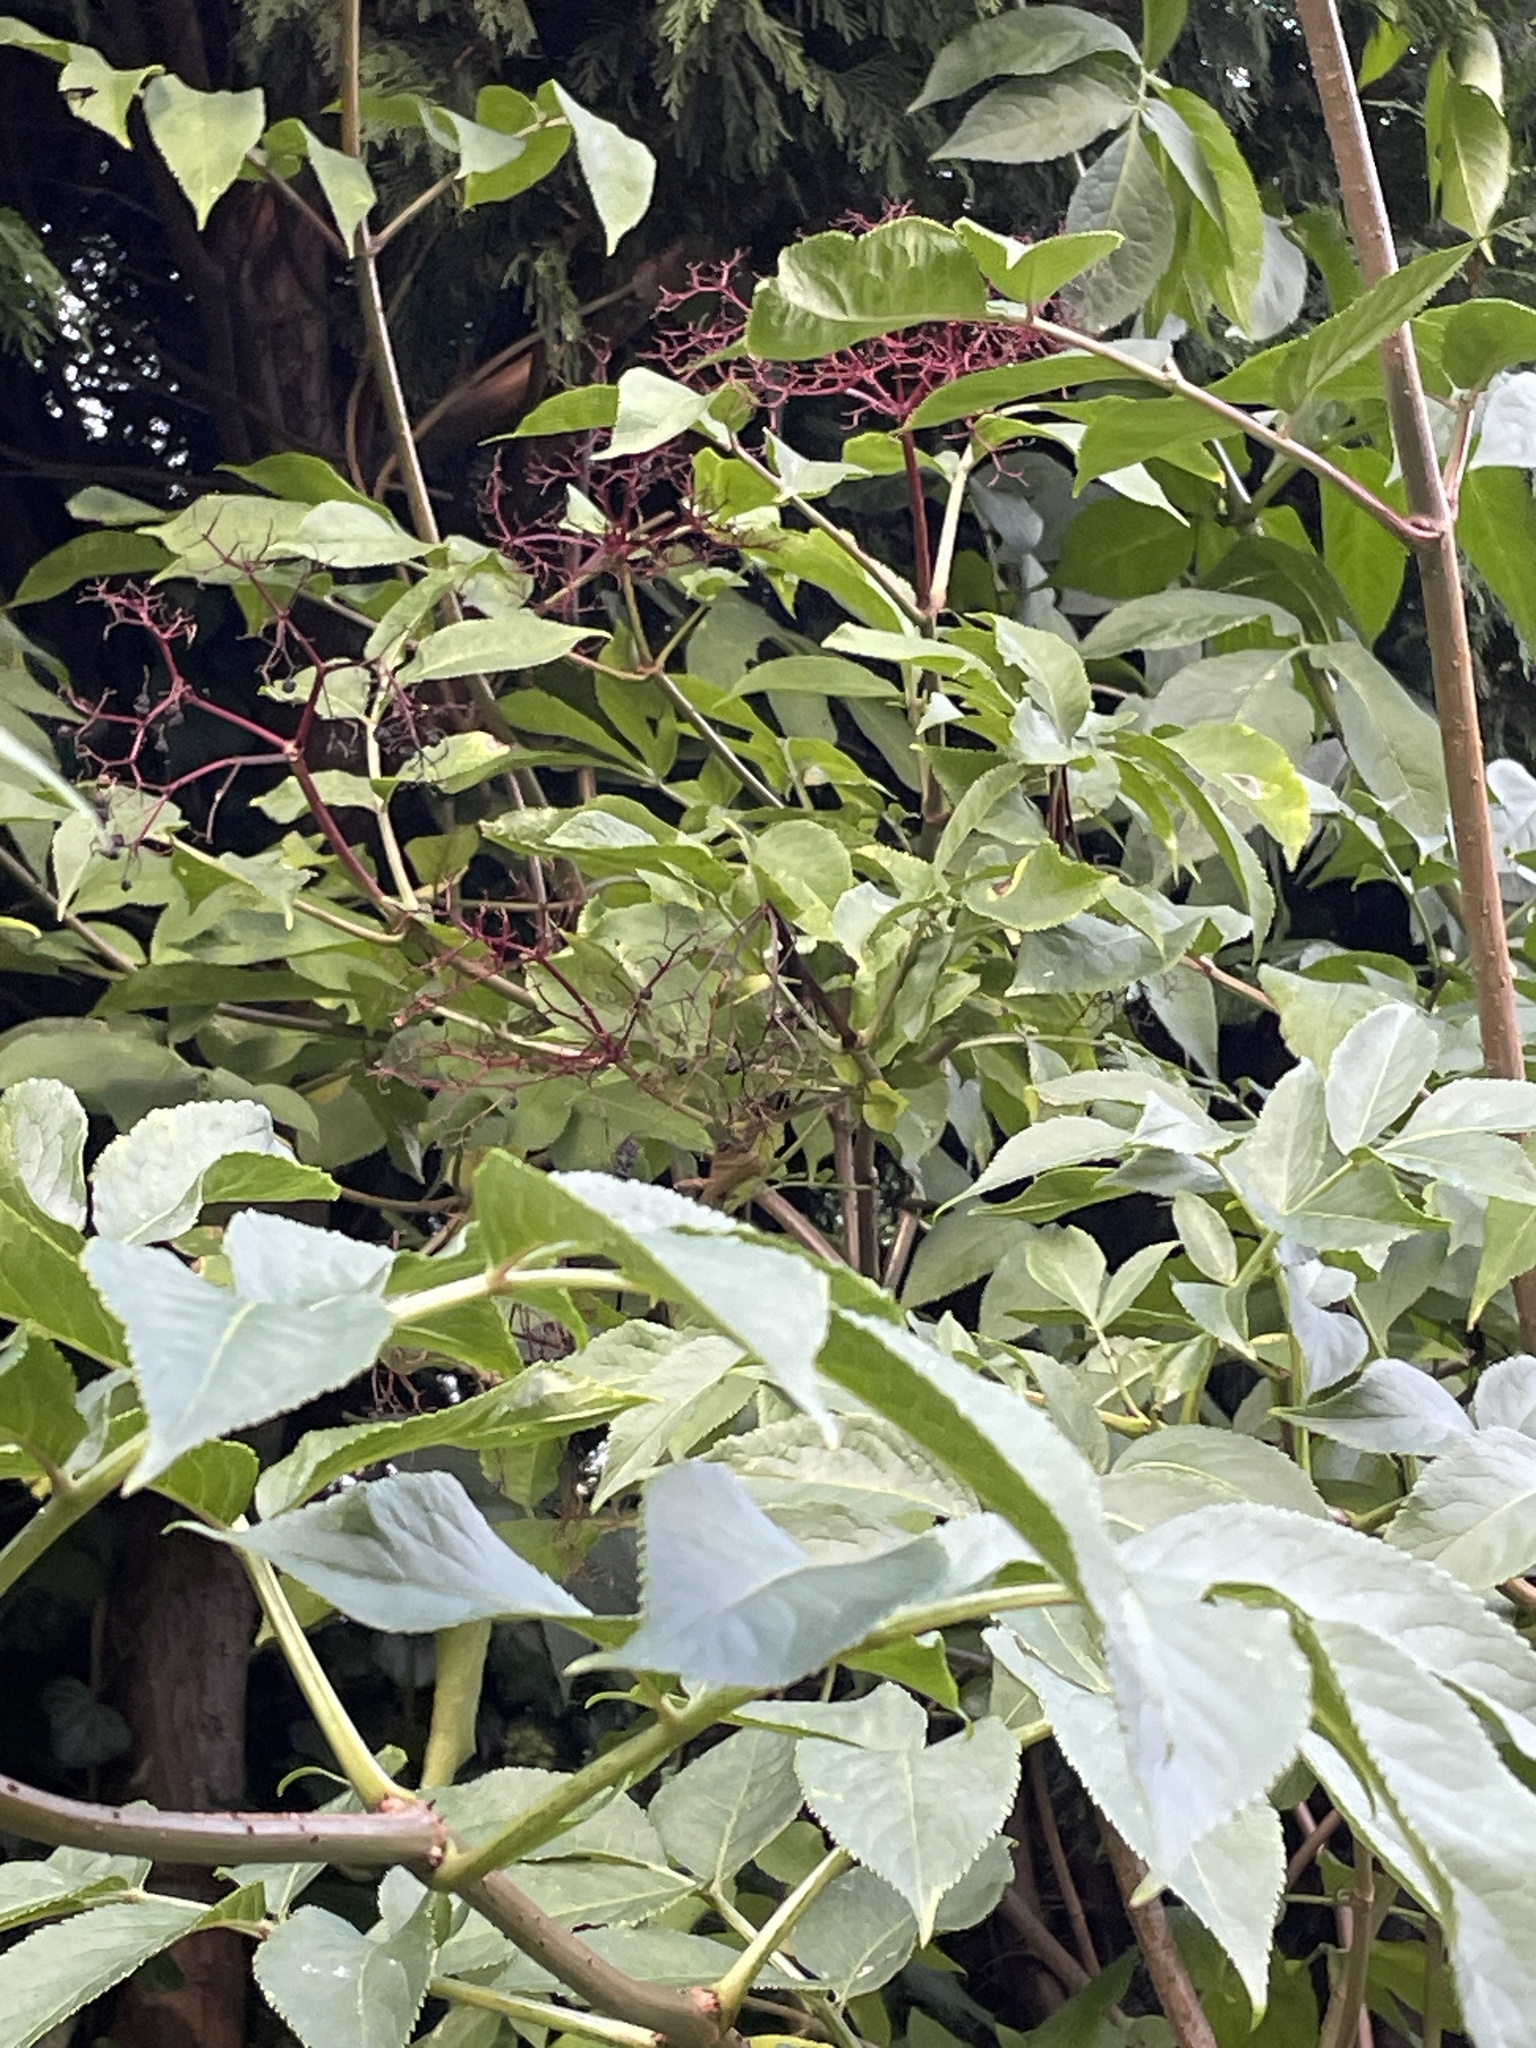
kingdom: Plantae
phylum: Tracheophyta
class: Magnoliopsida
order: Dipsacales
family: Viburnaceae
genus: Sambucus
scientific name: Sambucus nigra
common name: Elder
